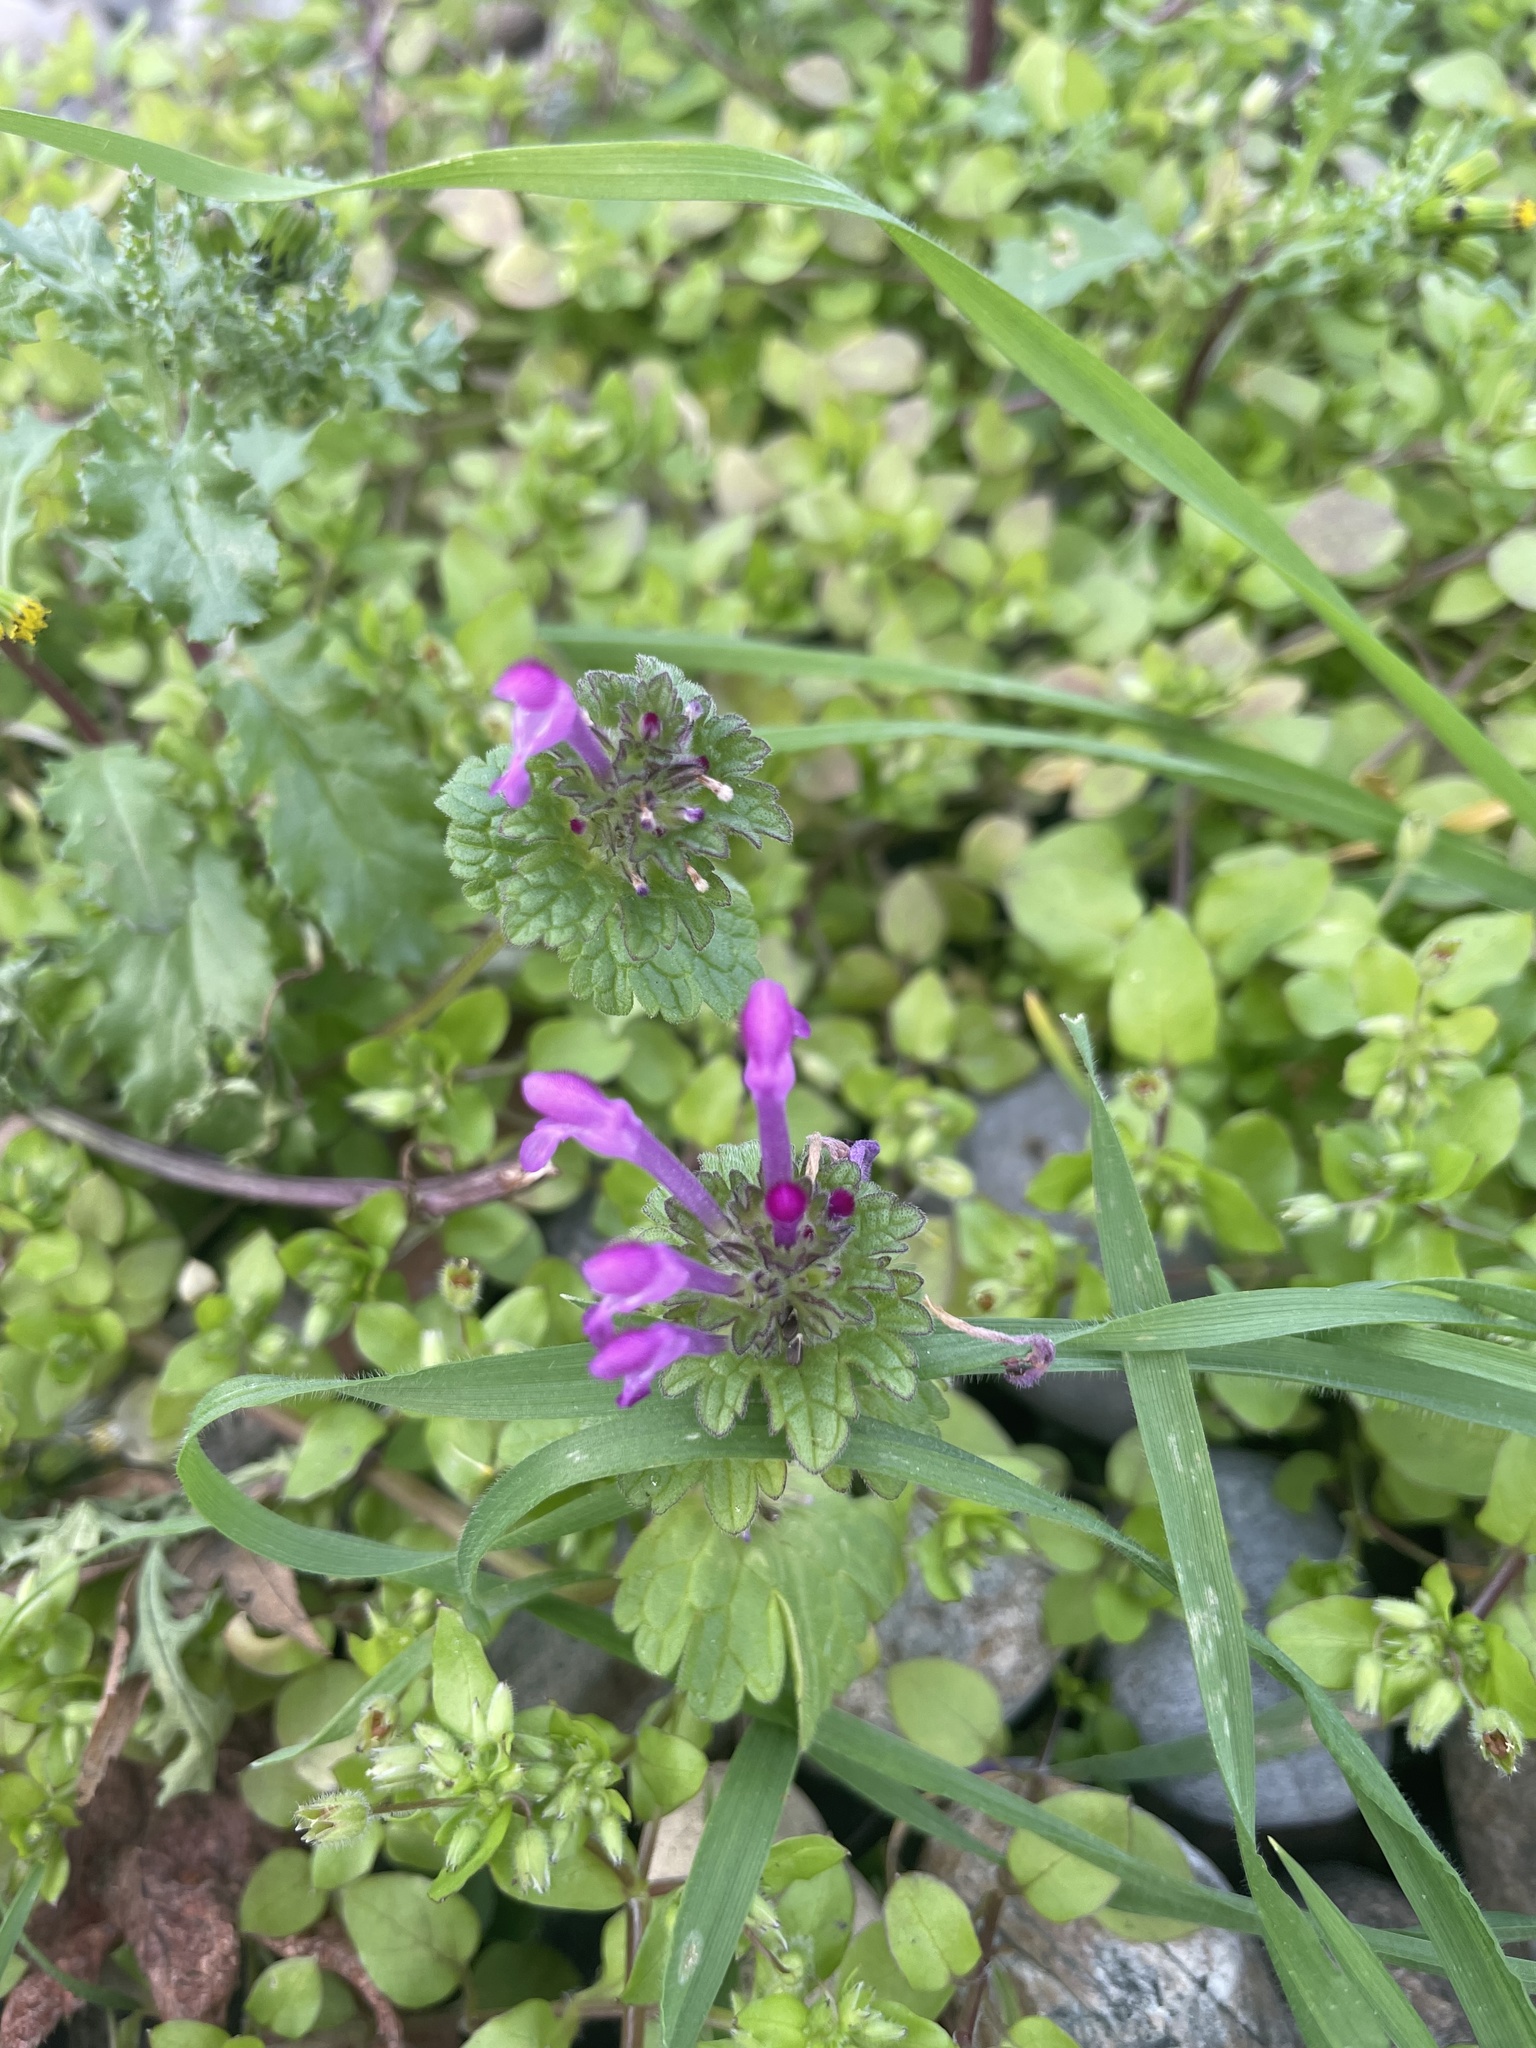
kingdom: Plantae
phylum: Tracheophyta
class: Magnoliopsida
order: Lamiales
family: Lamiaceae
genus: Lamium
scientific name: Lamium amplexicaule
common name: Henbit dead-nettle
